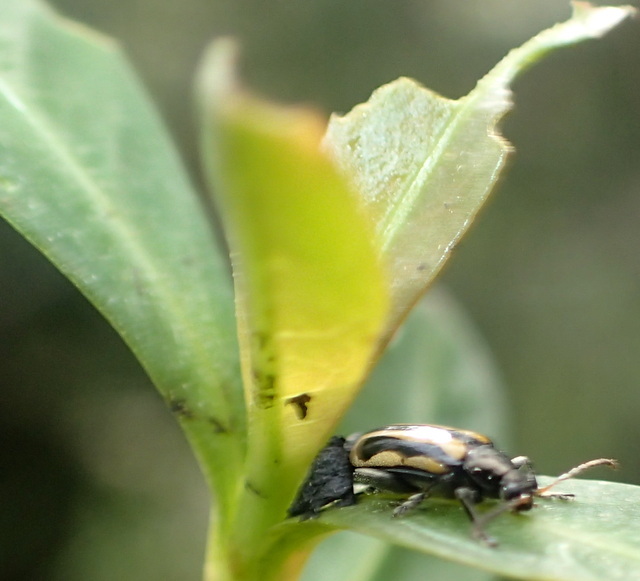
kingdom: Animalia
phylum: Arthropoda
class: Insecta
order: Coleoptera
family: Chrysomelidae
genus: Agasicles
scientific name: Agasicles hygrophila
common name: Alligatorweed flea beetle
